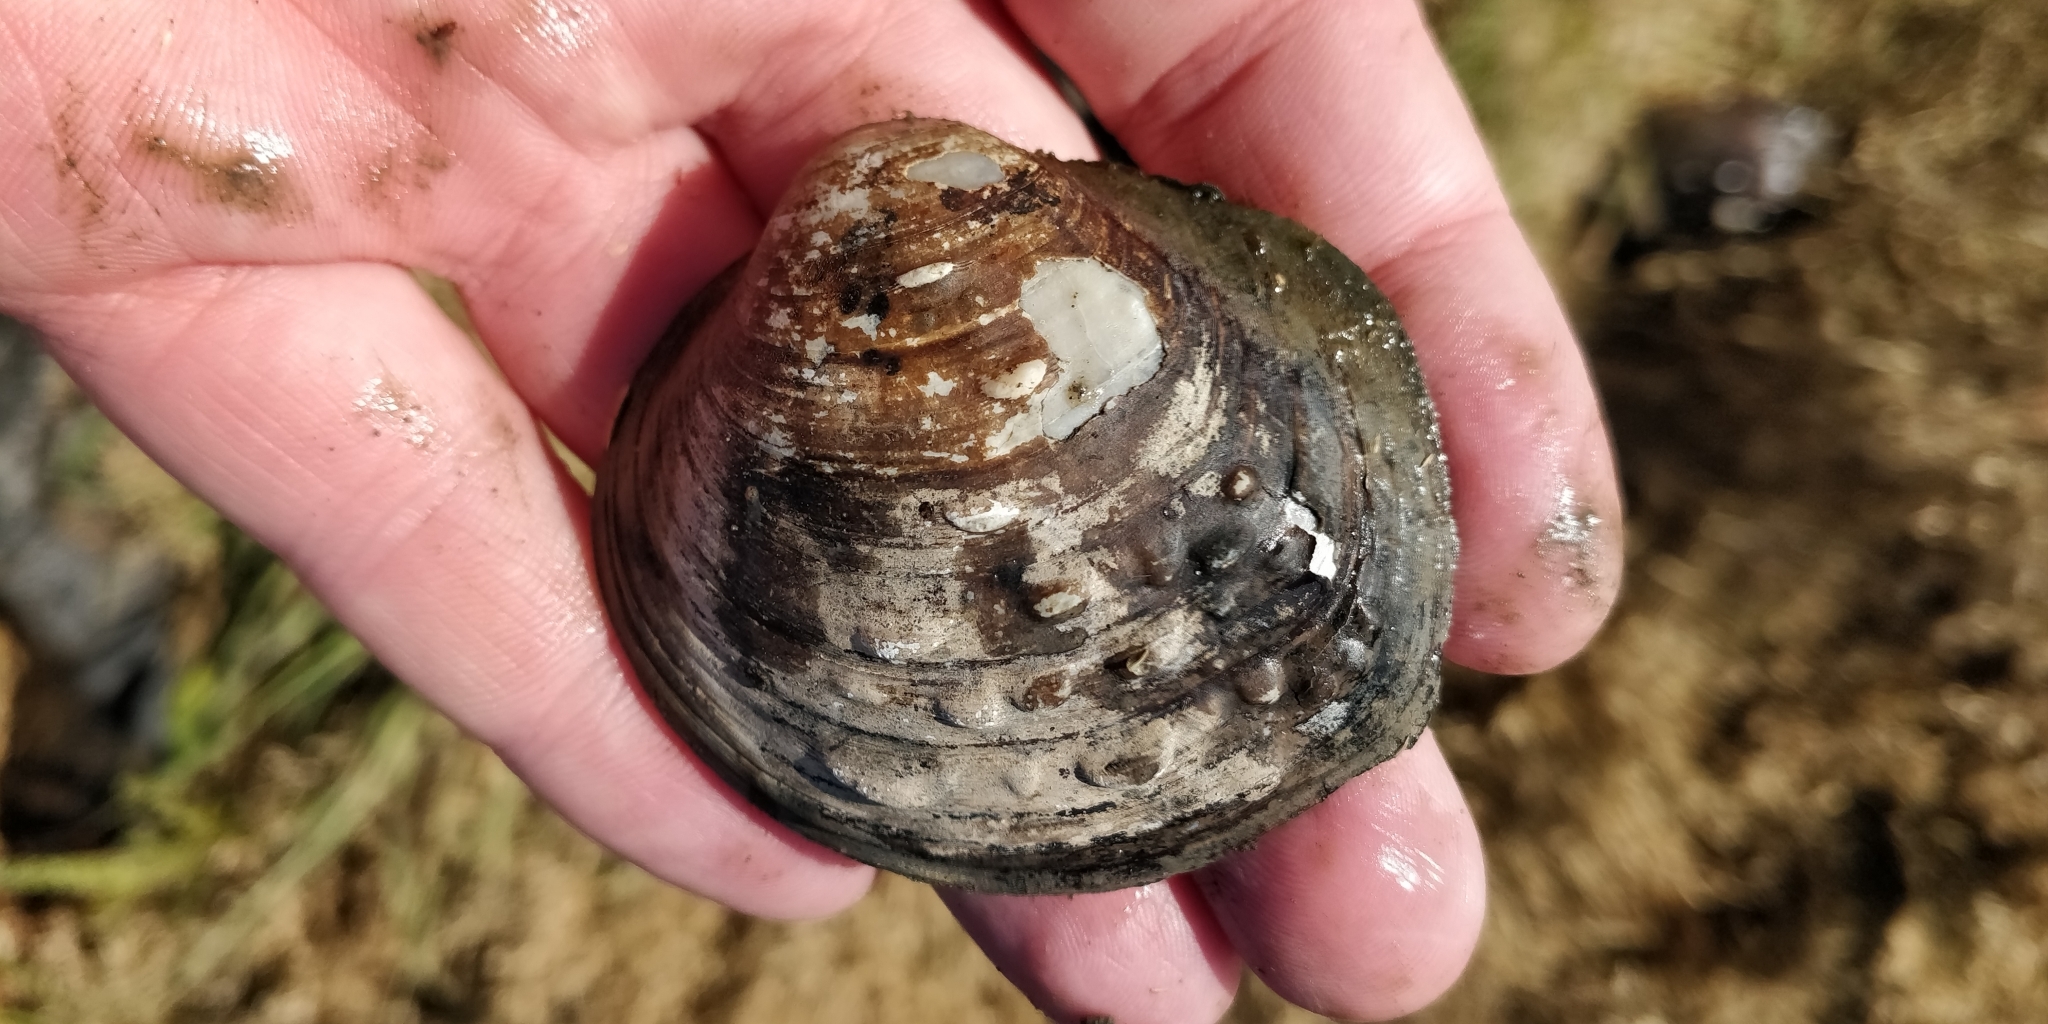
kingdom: Animalia
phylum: Mollusca
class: Bivalvia
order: Unionida
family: Unionidae
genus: Cyclonaias
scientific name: Cyclonaias pustulosa
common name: Pimpleback
